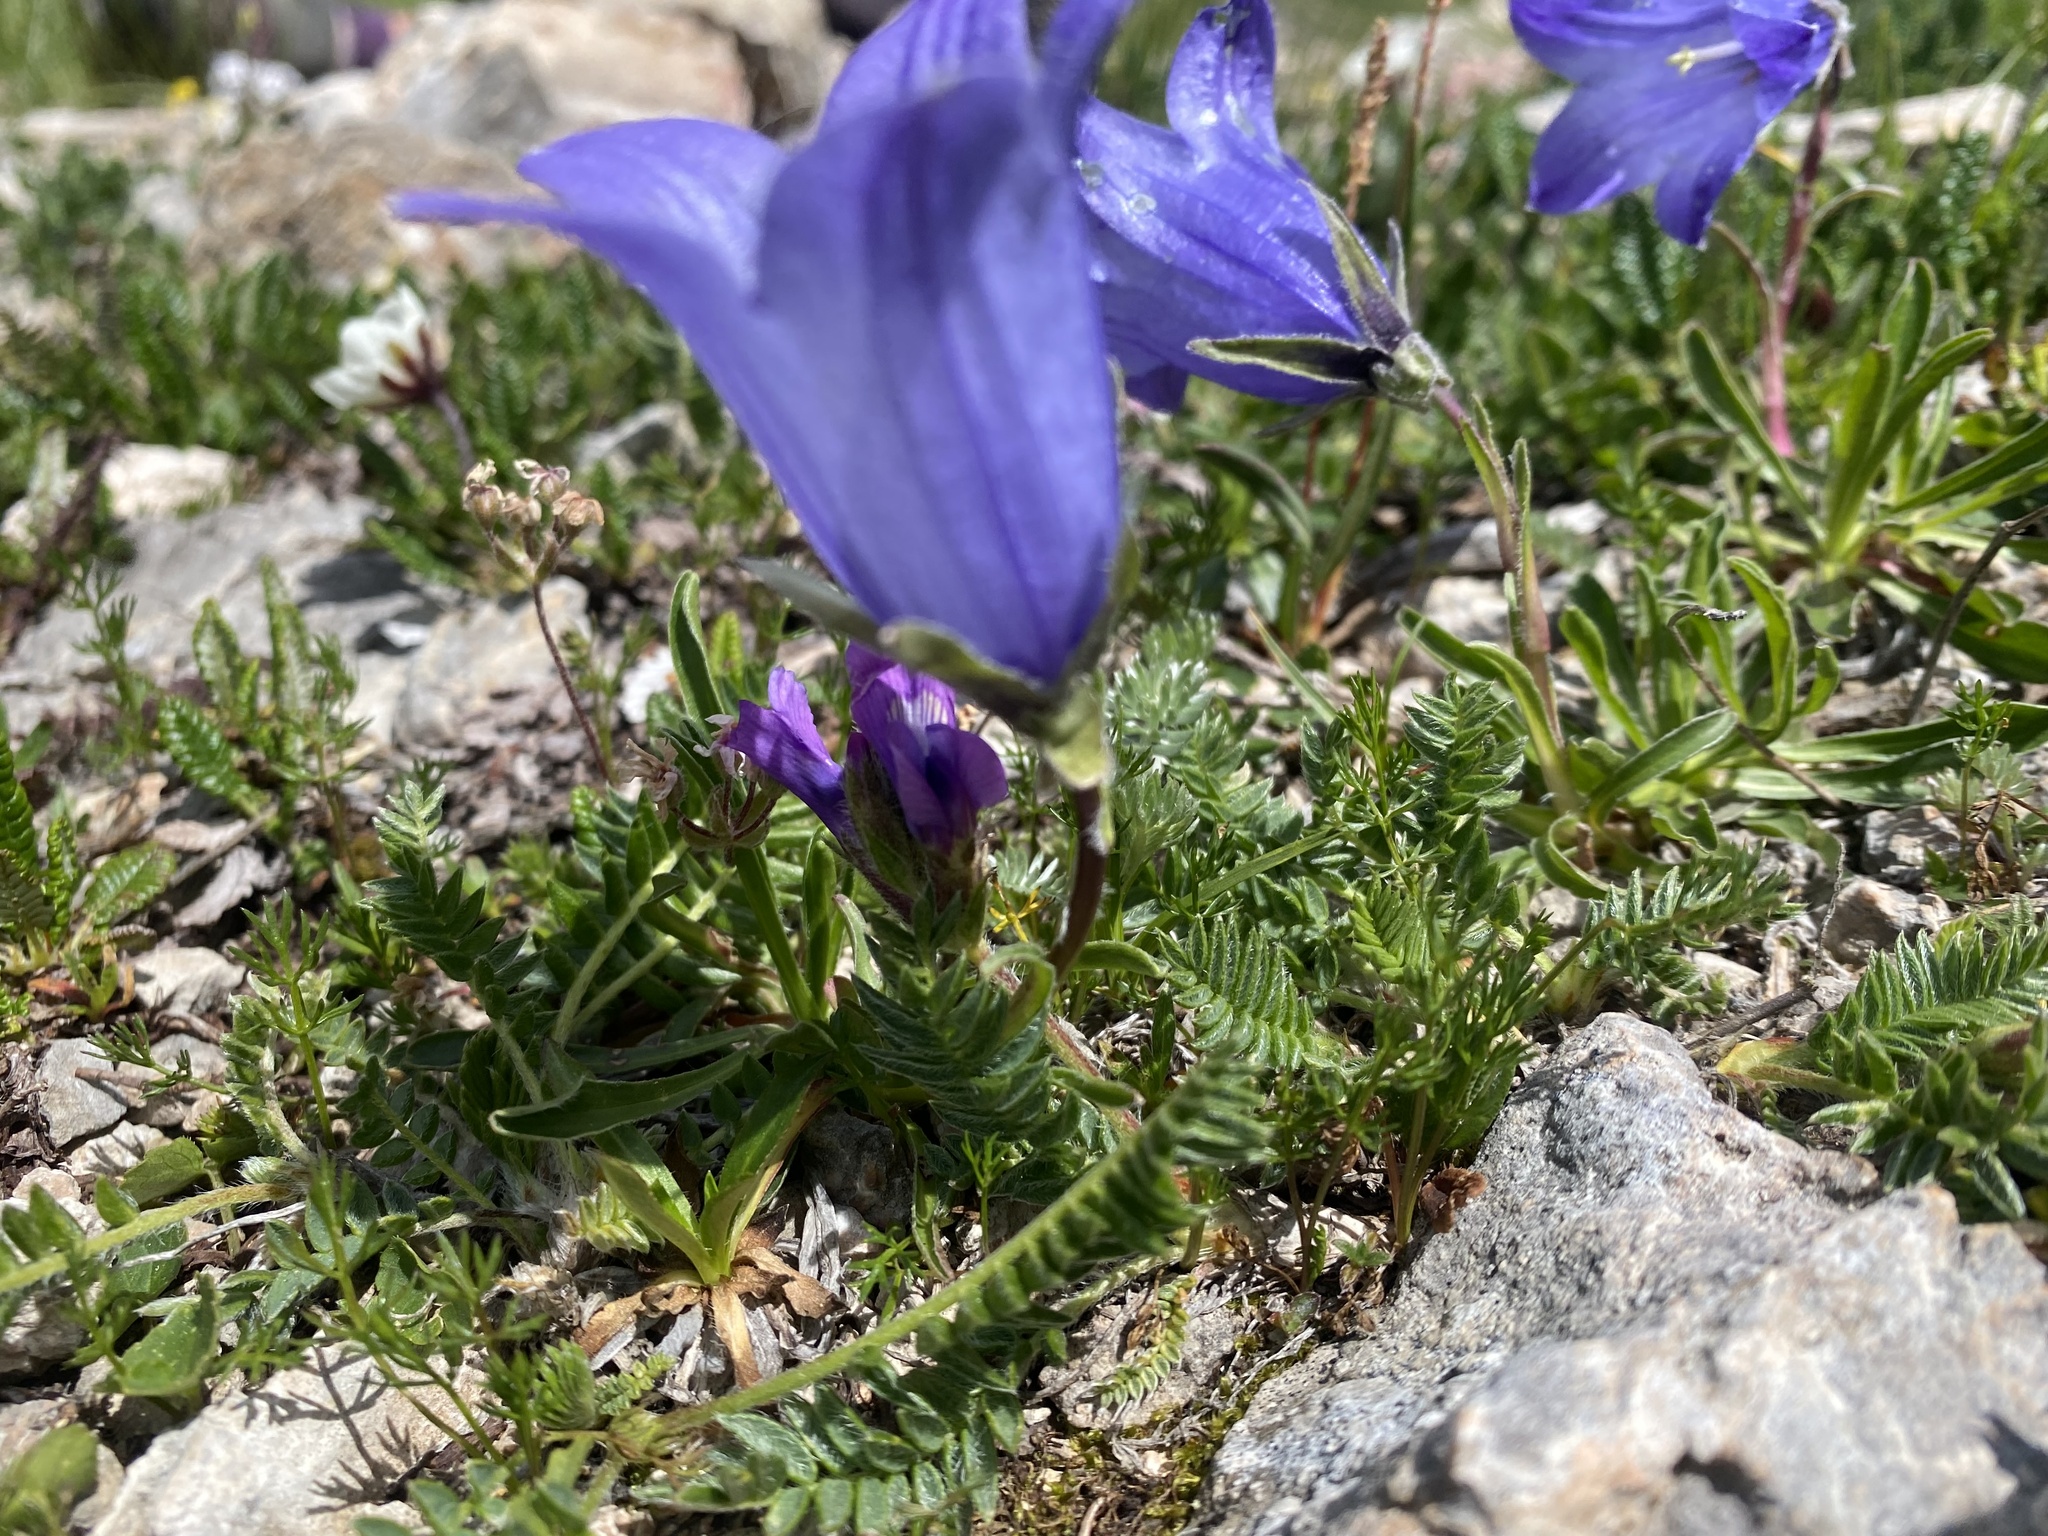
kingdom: Plantae
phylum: Tracheophyta
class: Magnoliopsida
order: Asterales
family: Campanulaceae
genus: Campanula
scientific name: Campanula tridentata
